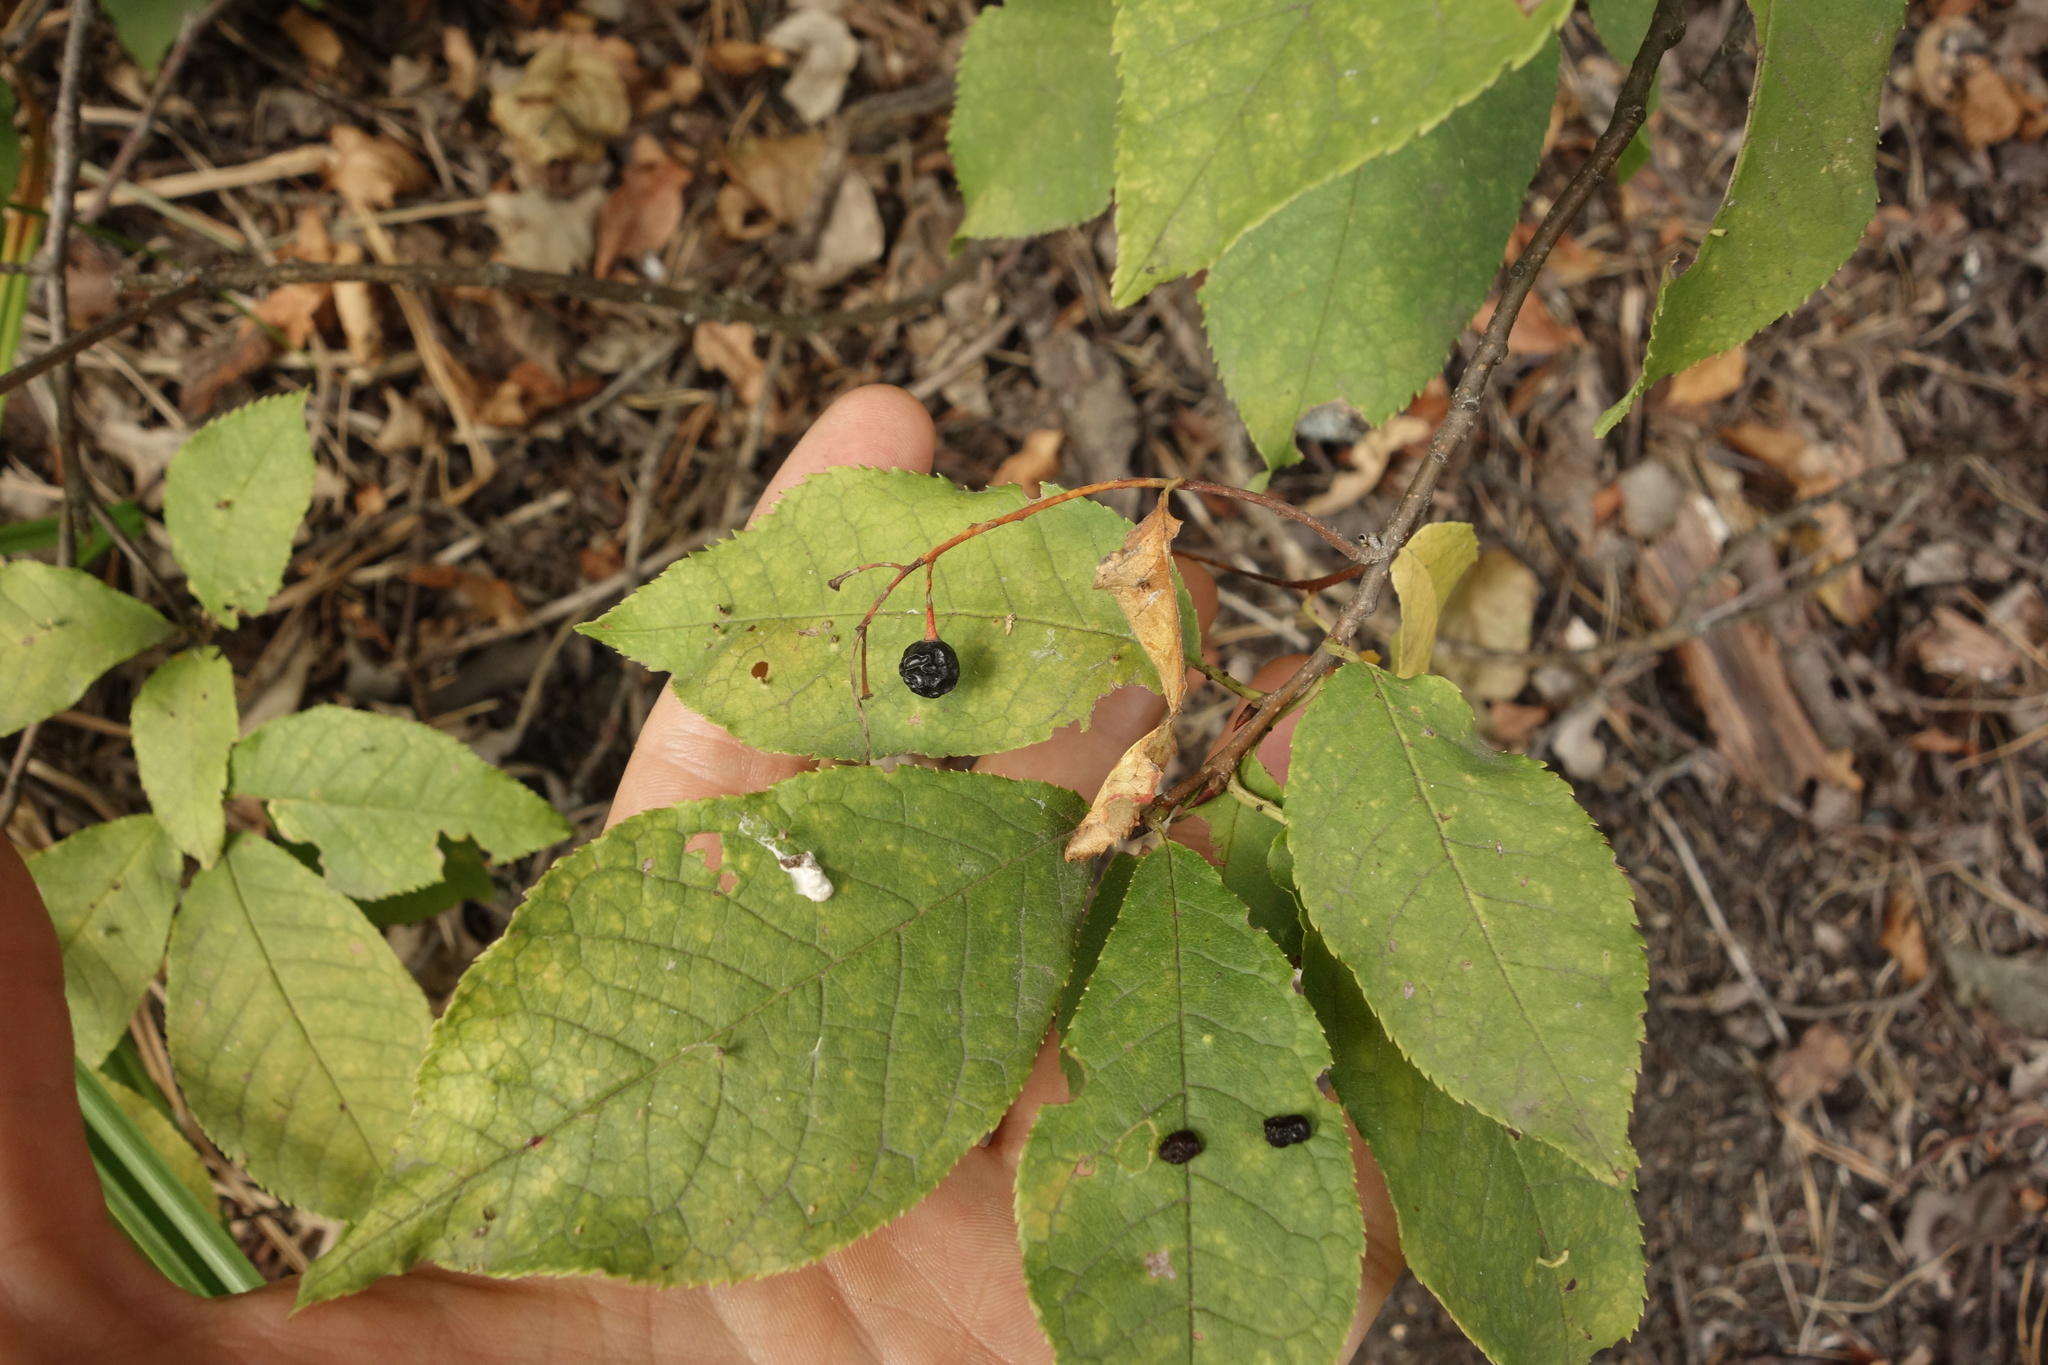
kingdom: Plantae
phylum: Tracheophyta
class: Magnoliopsida
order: Rosales
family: Rosaceae
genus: Prunus
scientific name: Prunus padus
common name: Bird cherry
